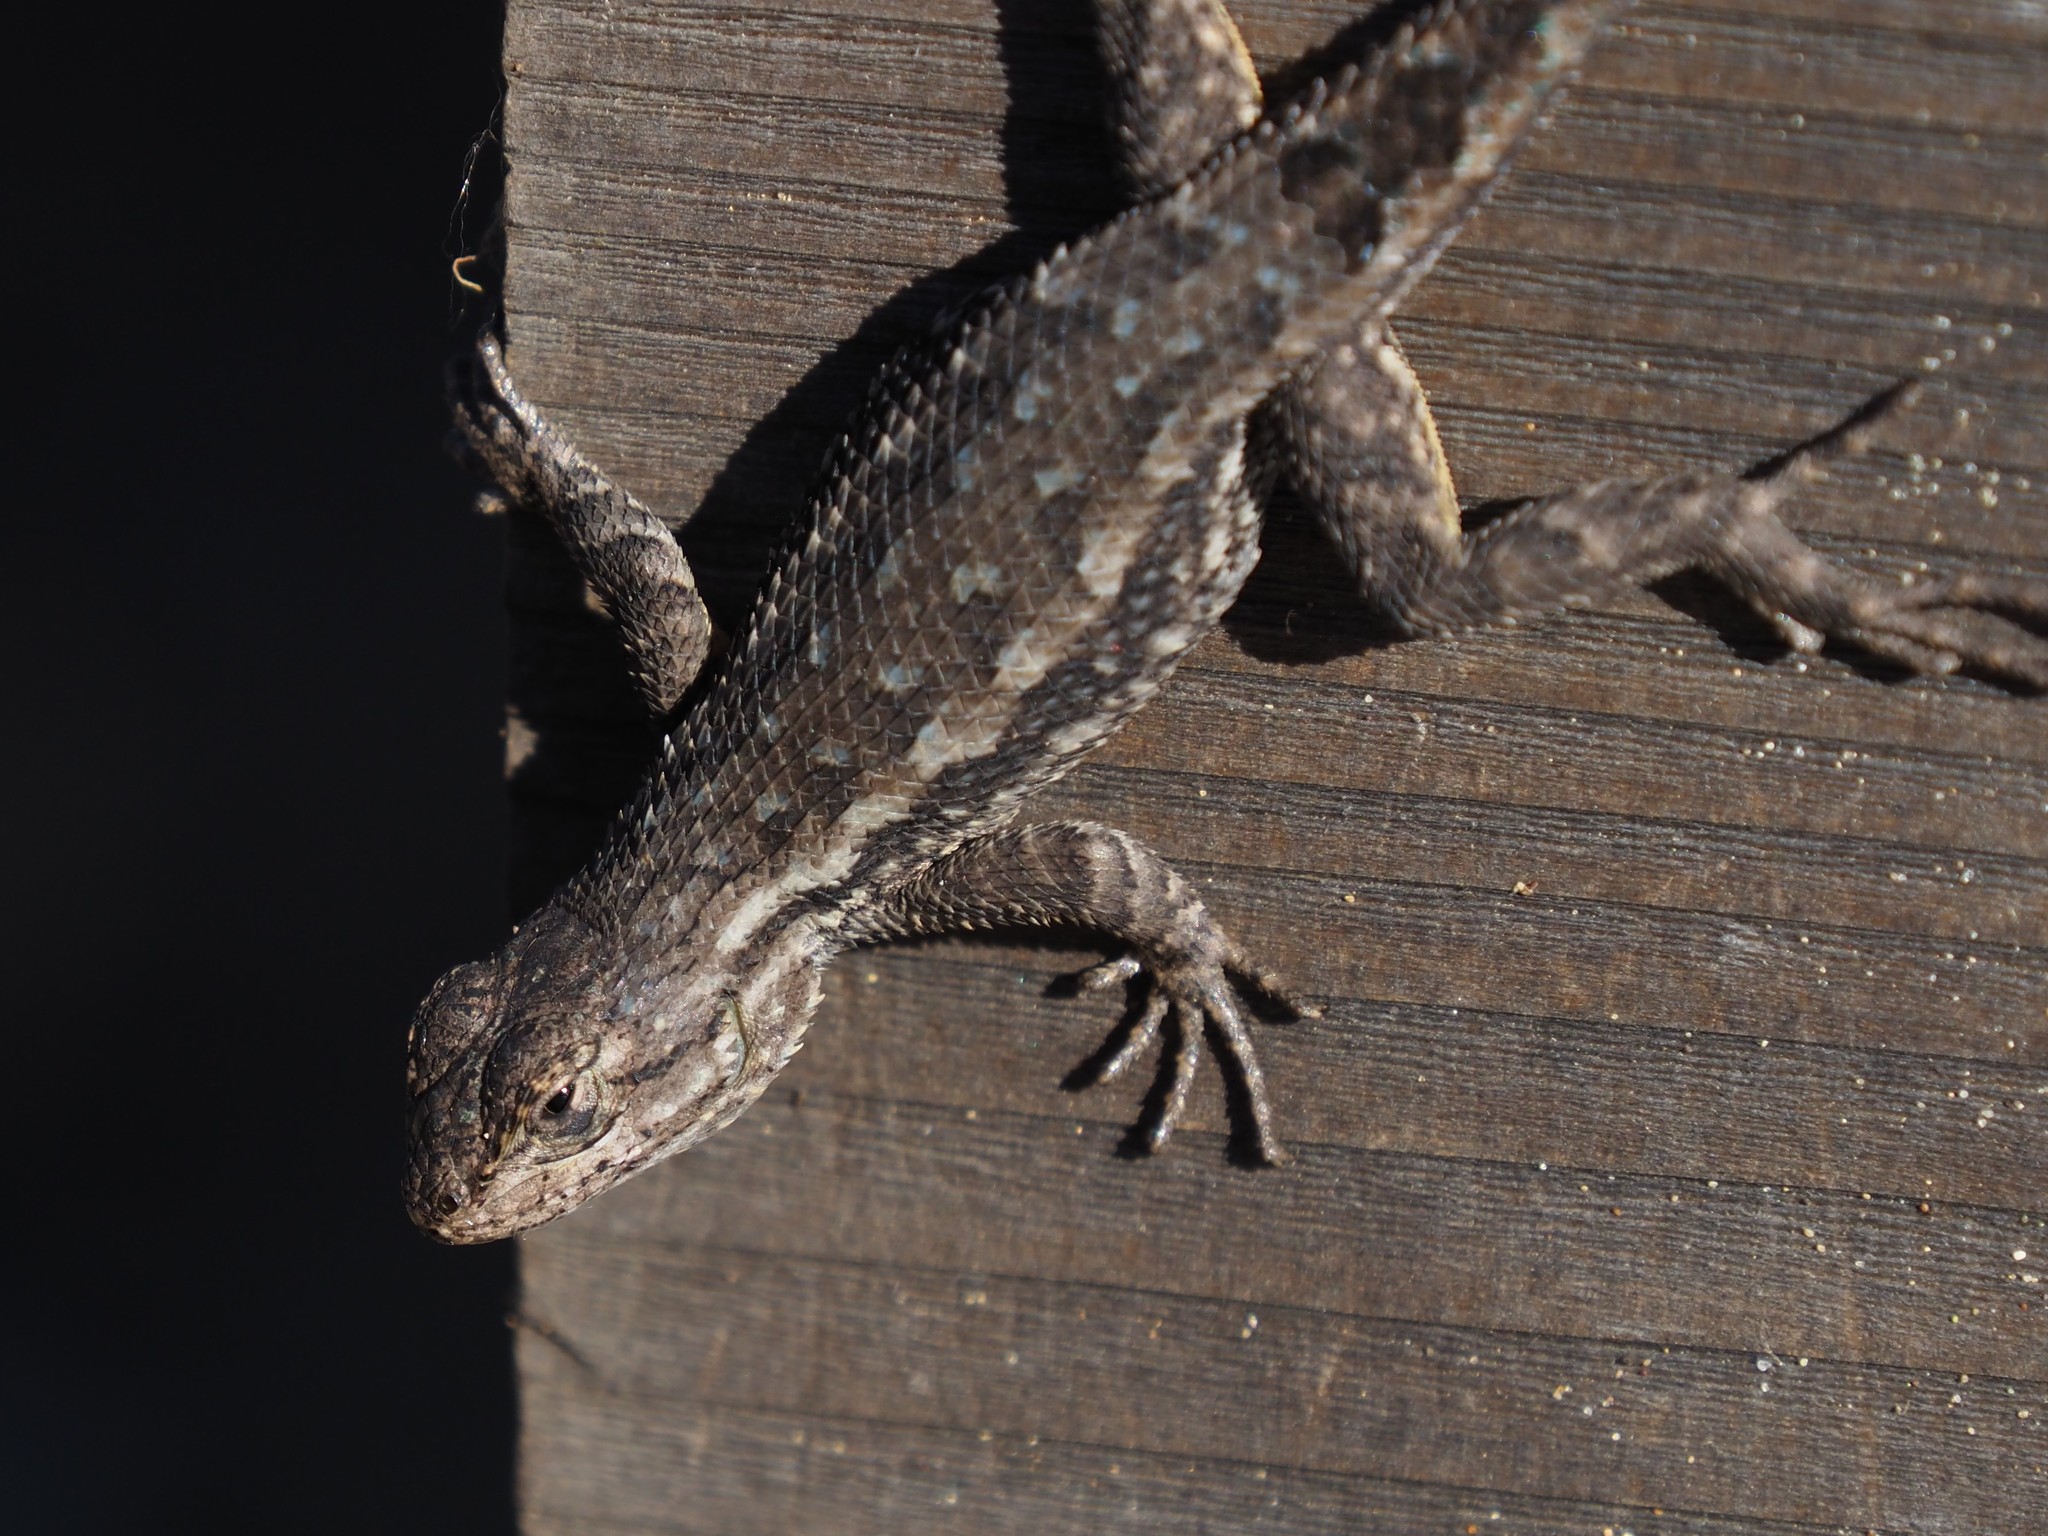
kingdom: Animalia
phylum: Chordata
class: Squamata
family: Phrynosomatidae
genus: Sceloporus
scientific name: Sceloporus occidentalis
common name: Western fence lizard
